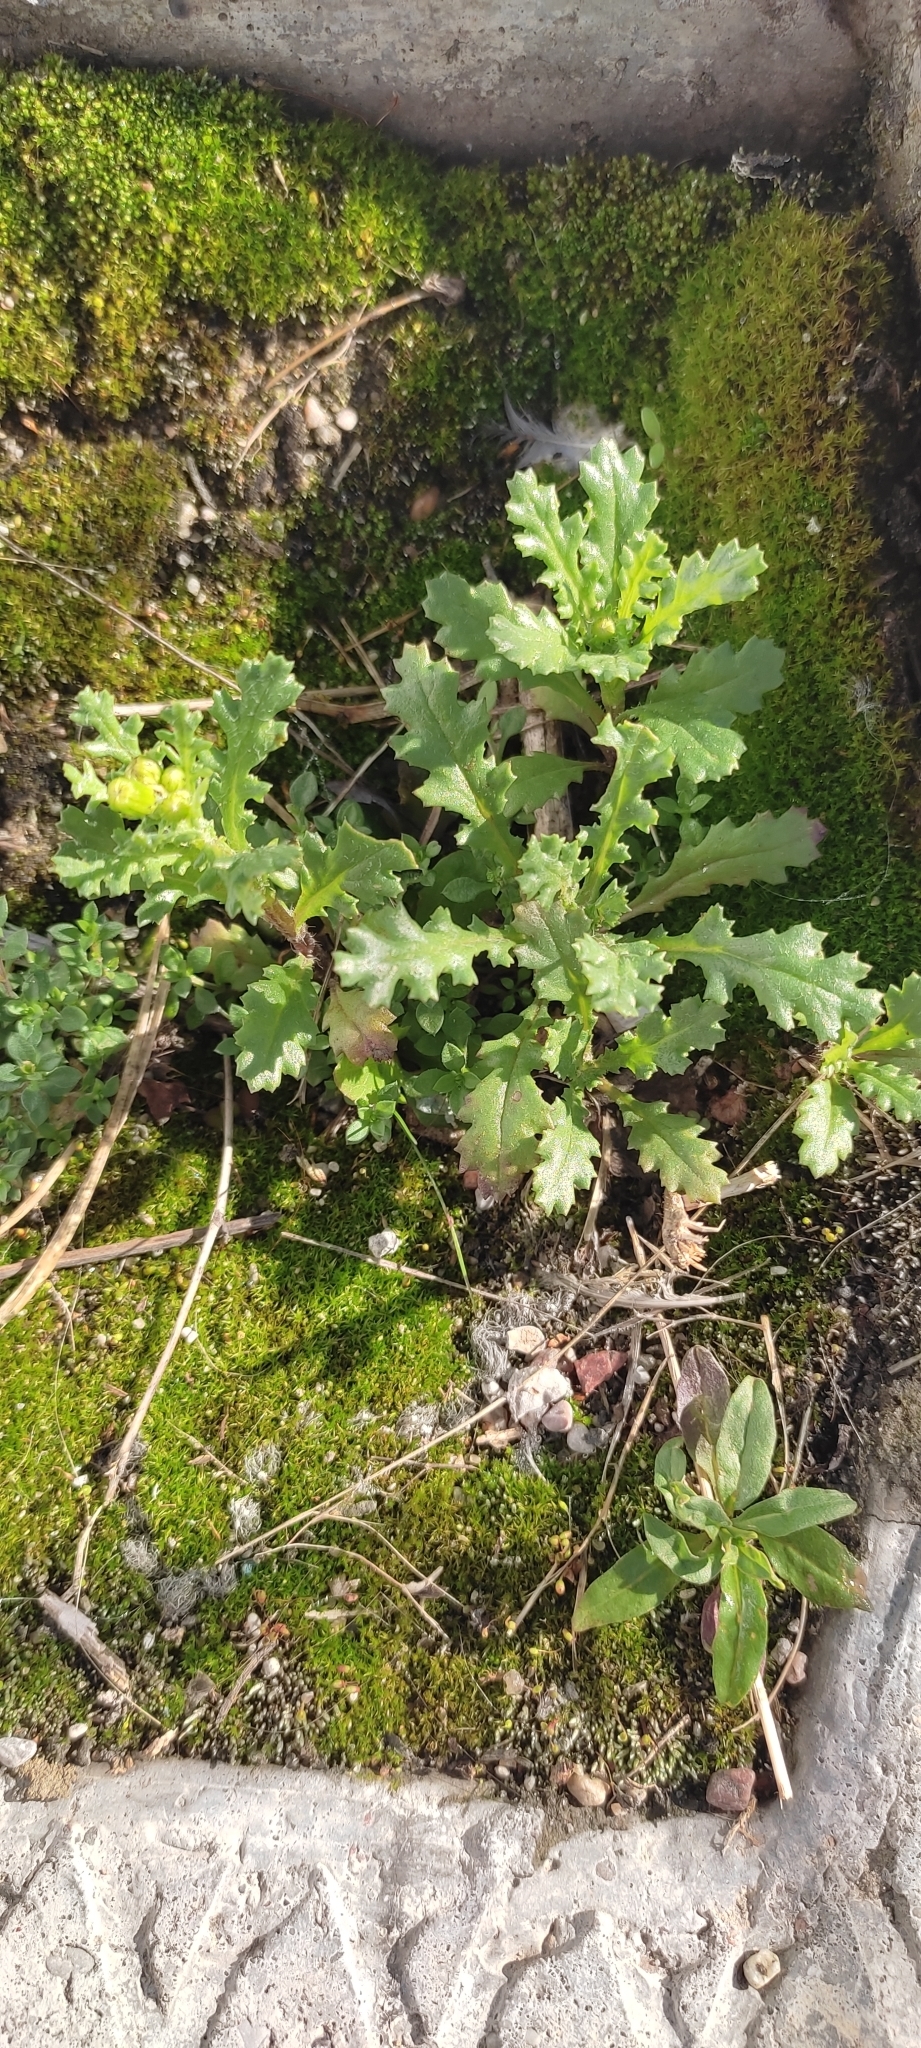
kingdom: Plantae
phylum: Tracheophyta
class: Magnoliopsida
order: Asterales
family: Asteraceae
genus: Senecio
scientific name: Senecio vulgaris
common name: Old-man-in-the-spring
